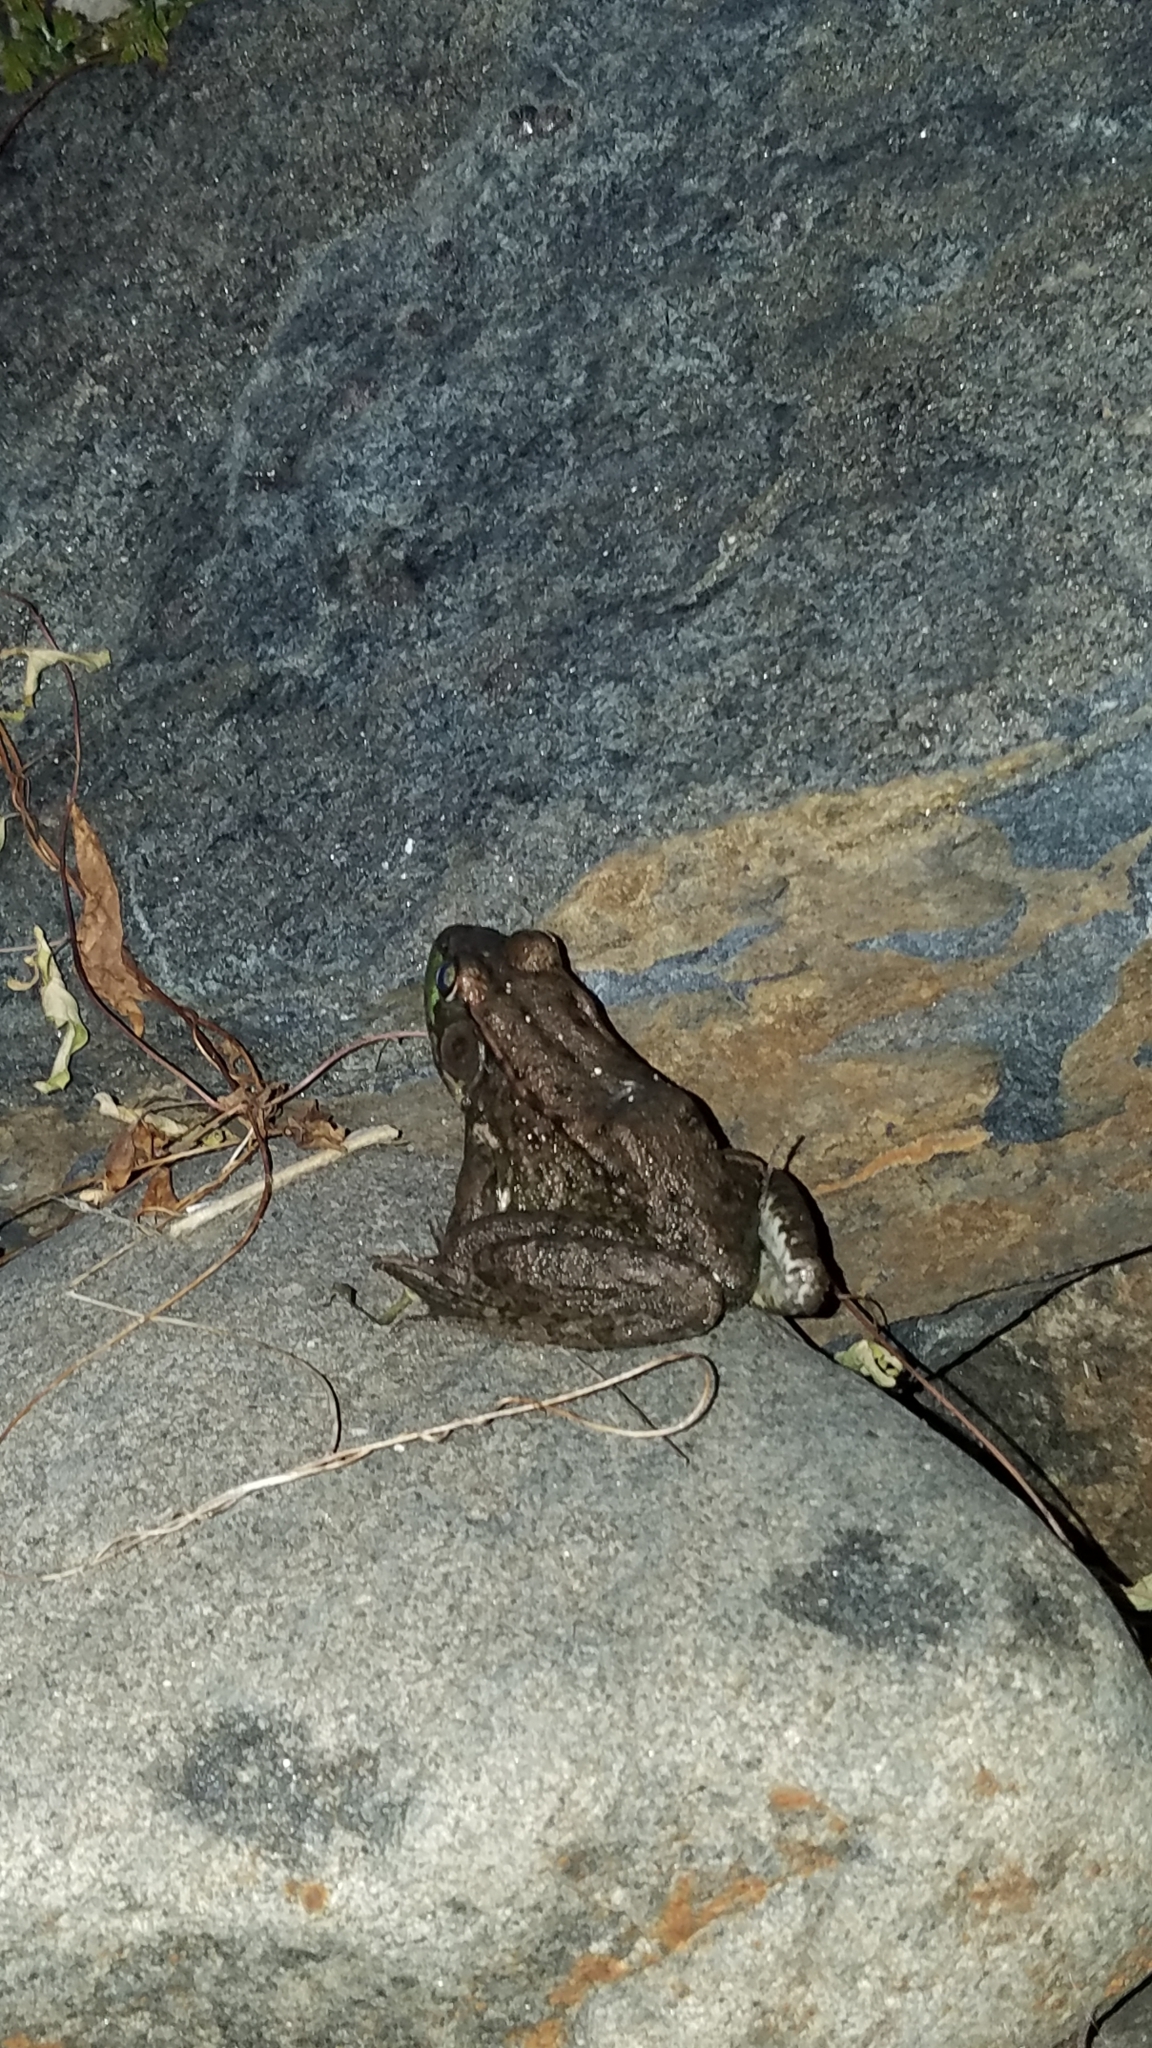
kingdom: Animalia
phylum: Chordata
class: Amphibia
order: Anura
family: Ranidae
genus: Lithobates
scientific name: Lithobates clamitans
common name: Green frog
